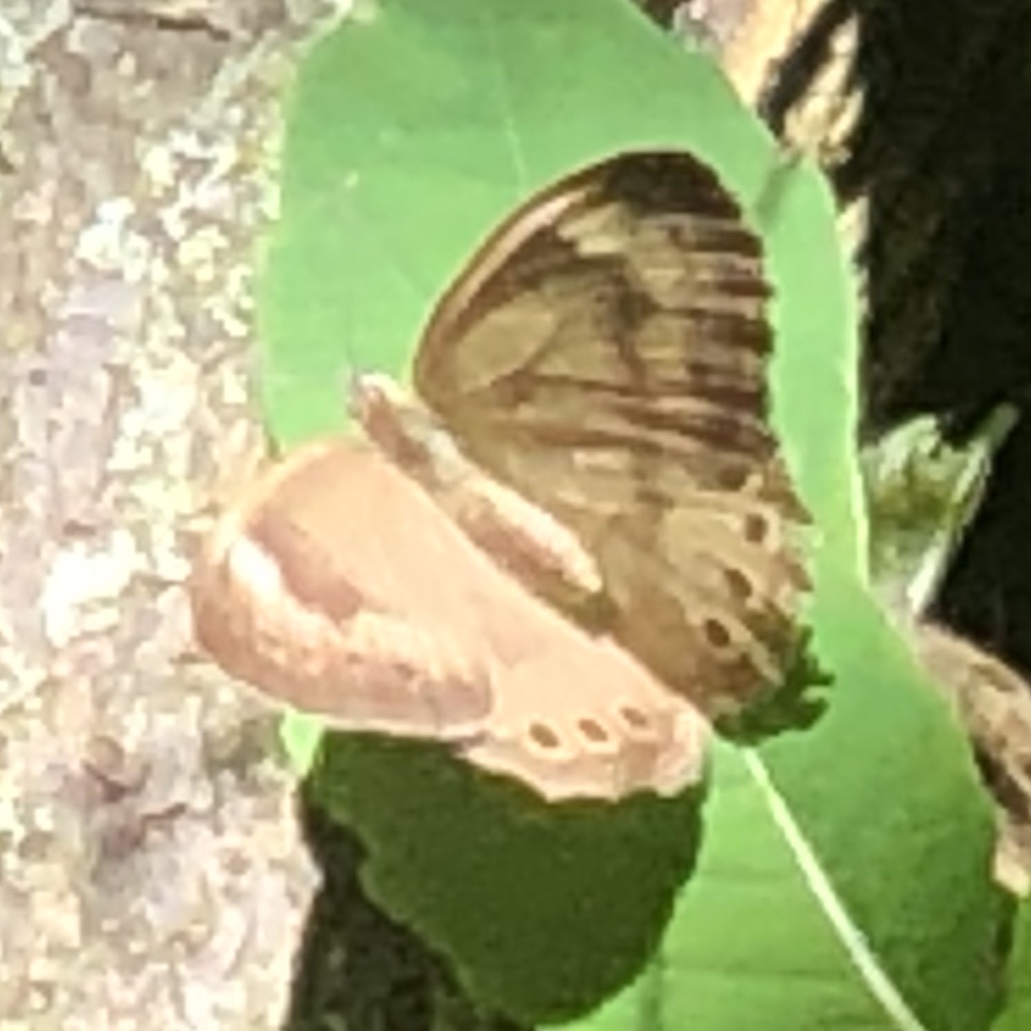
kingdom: Animalia
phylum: Arthropoda
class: Insecta
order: Lepidoptera
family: Nymphalidae
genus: Lethe
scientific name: Lethe eurydice
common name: Eyed brown
